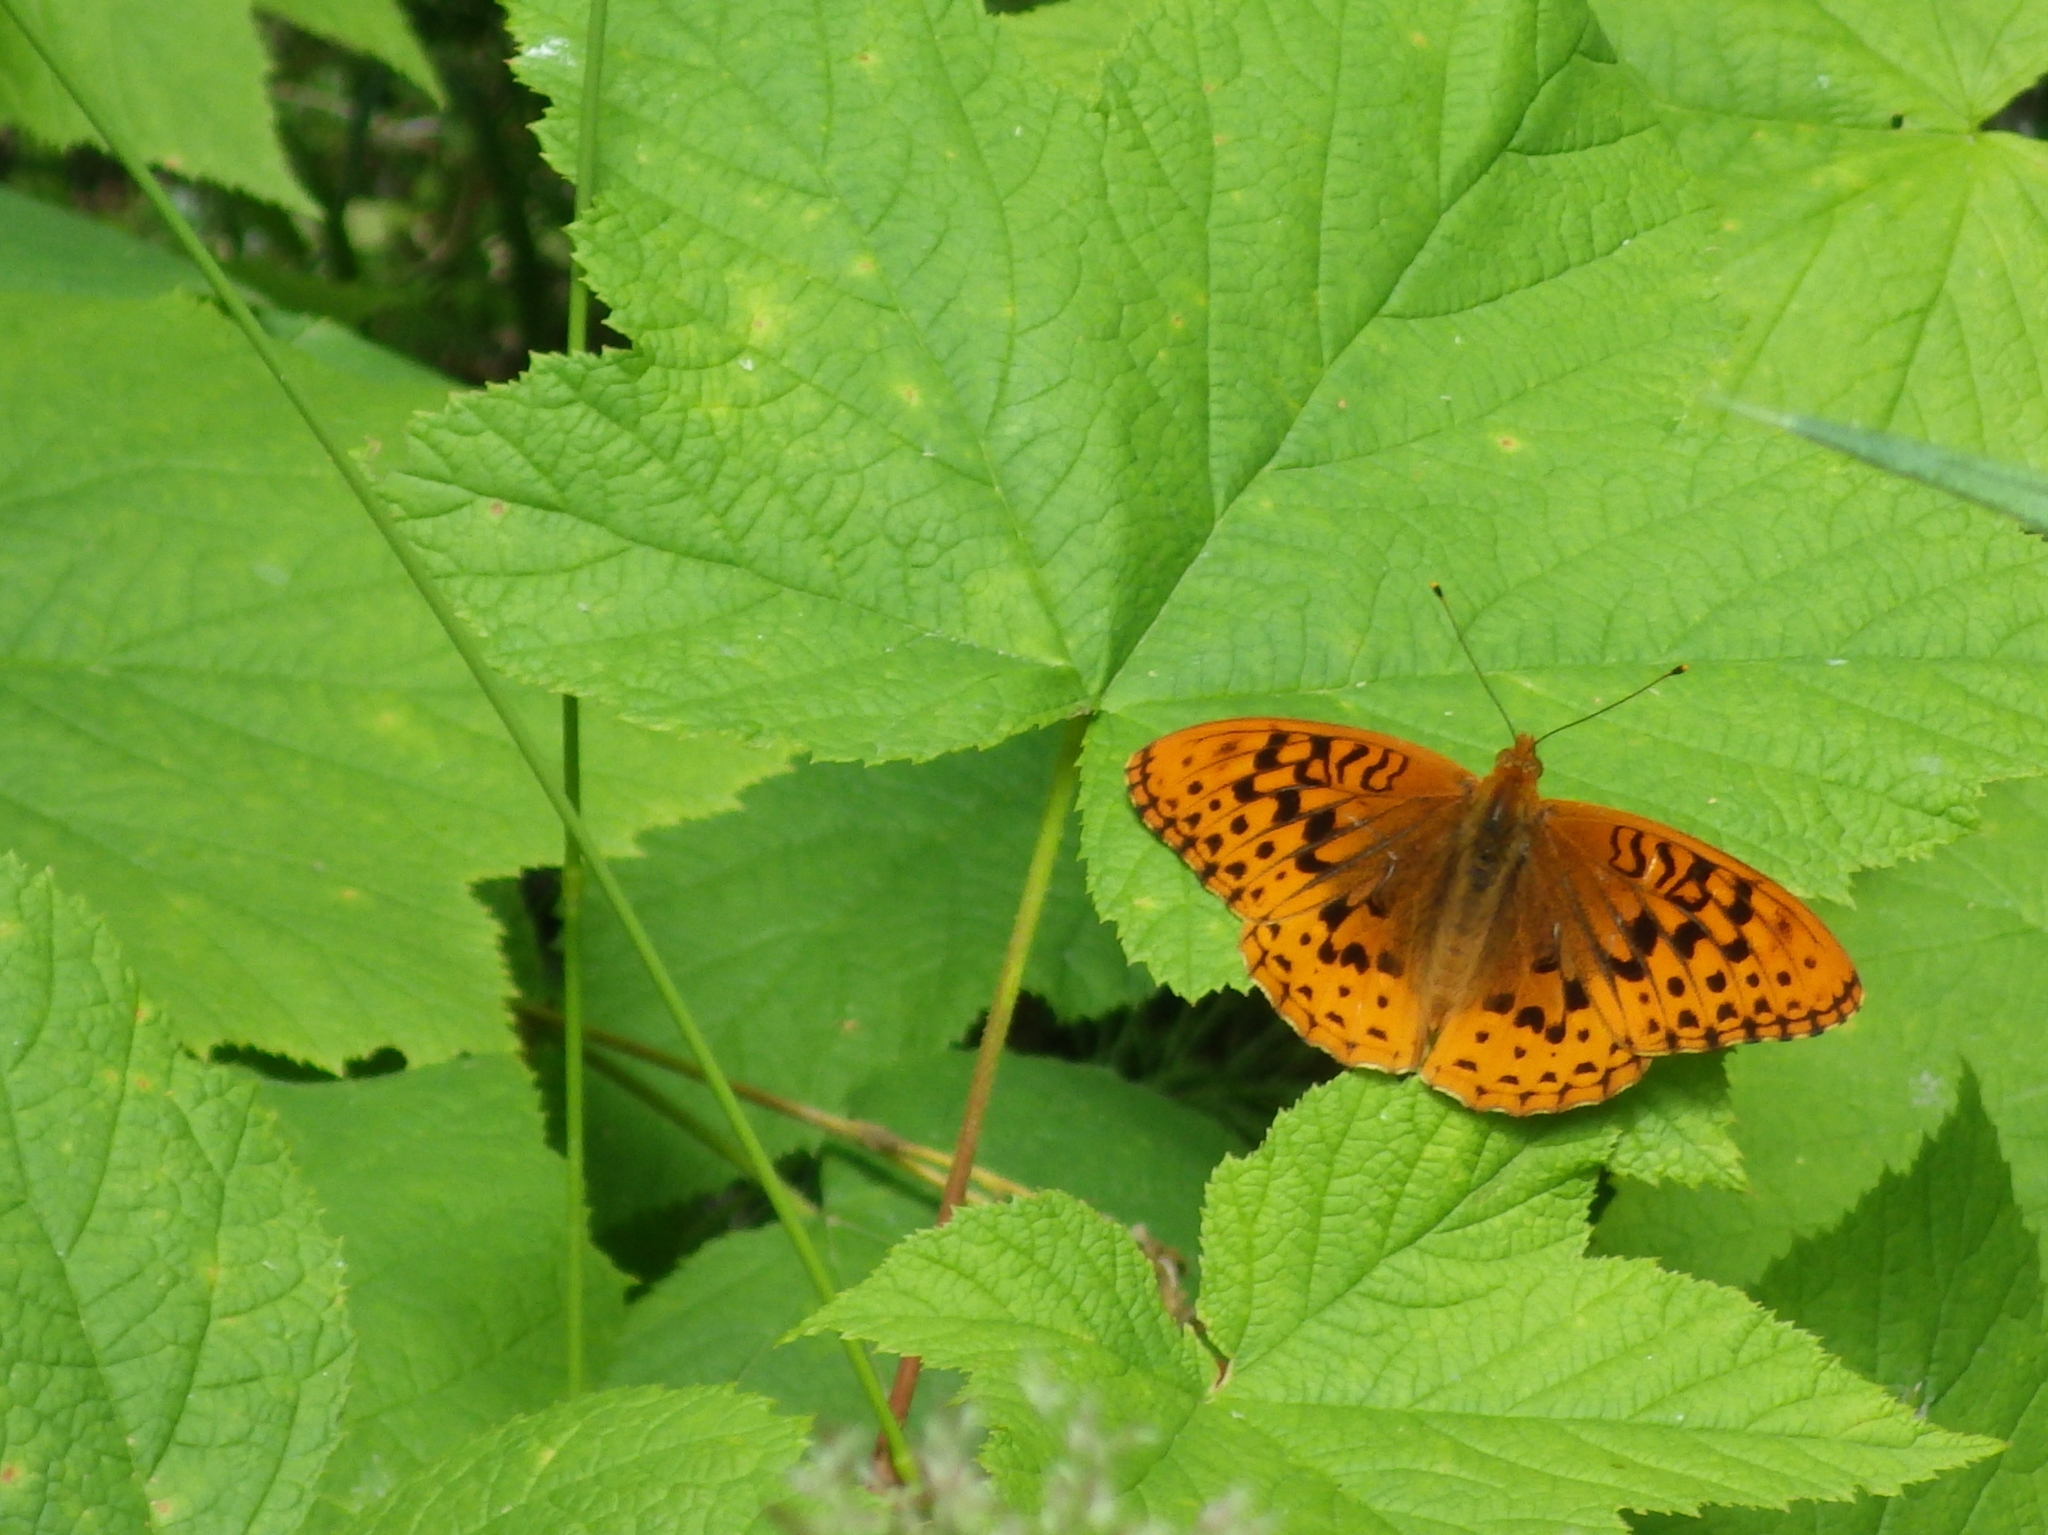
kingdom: Animalia
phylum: Arthropoda
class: Insecta
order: Lepidoptera
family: Nymphalidae
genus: Speyeria
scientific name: Speyeria cybele
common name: Great spangled fritillary
